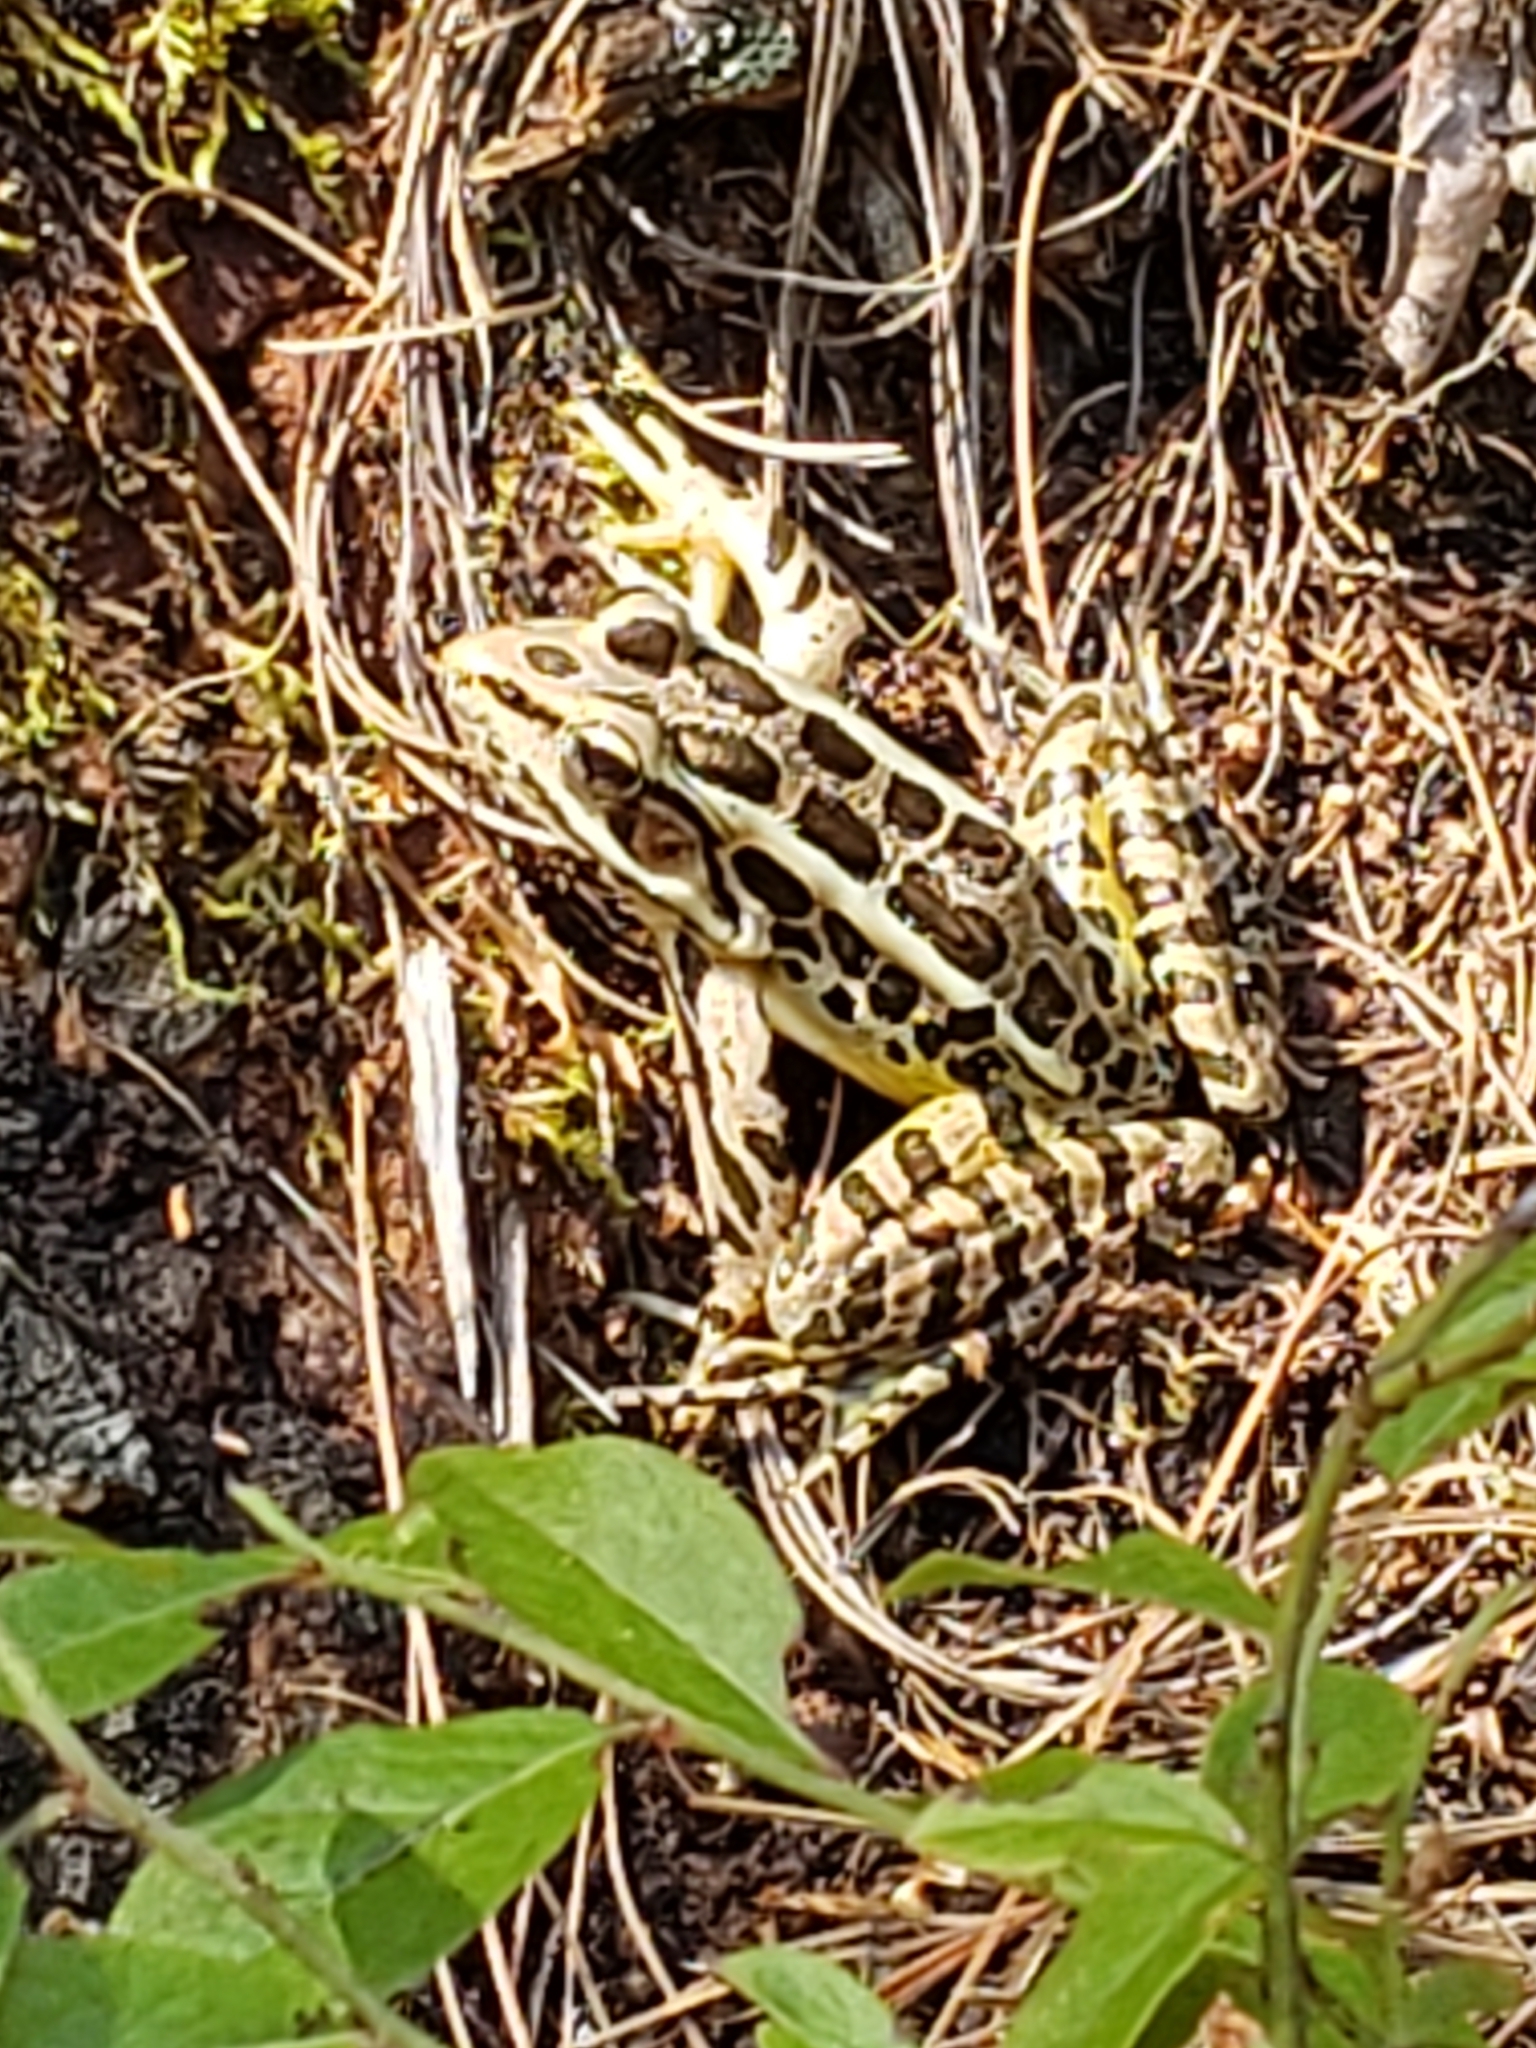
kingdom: Animalia
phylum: Chordata
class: Amphibia
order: Anura
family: Ranidae
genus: Lithobates
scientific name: Lithobates palustris
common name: Pickerel frog
